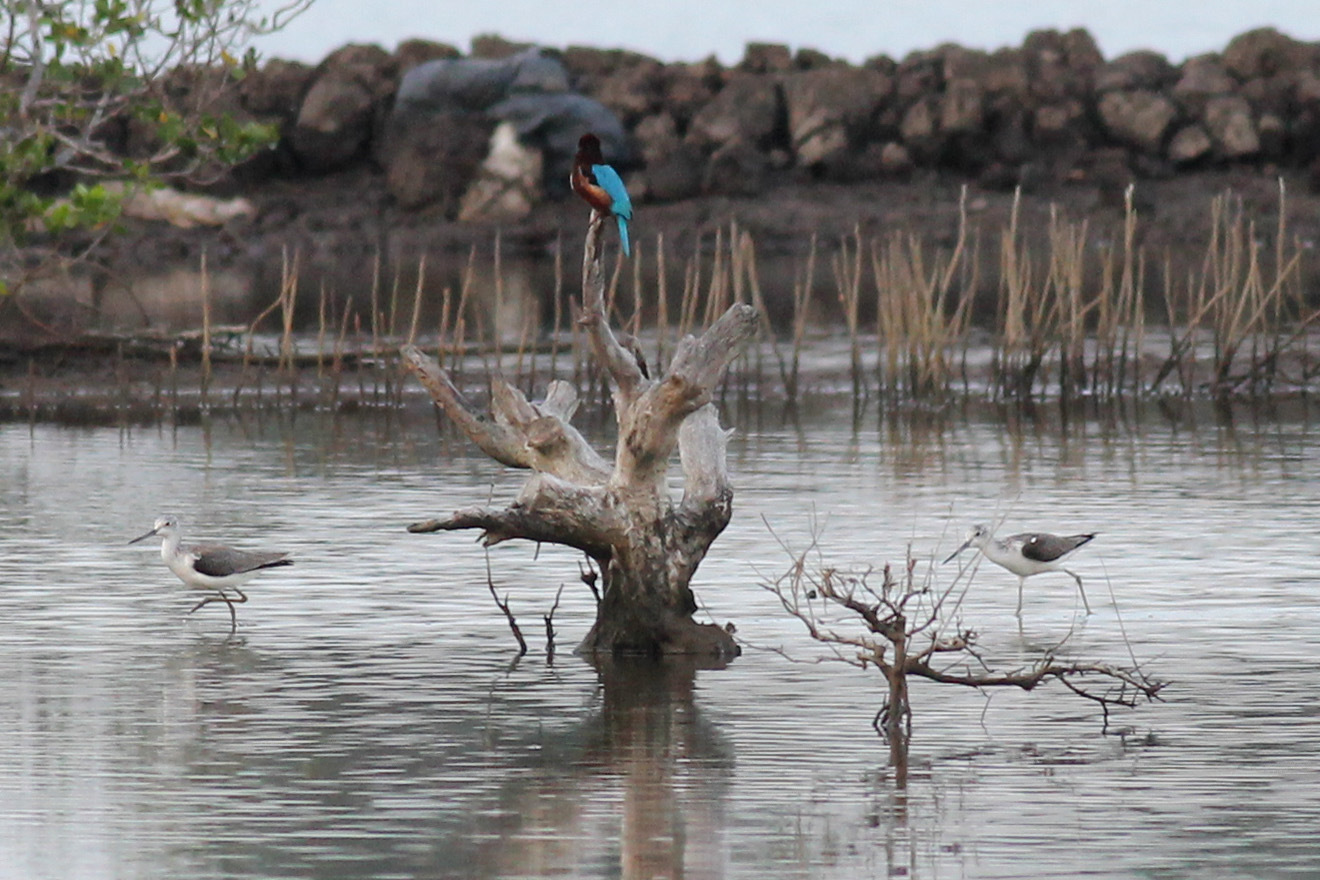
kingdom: Animalia
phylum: Chordata
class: Aves
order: Coraciiformes
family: Alcedinidae
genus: Halcyon
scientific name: Halcyon smyrnensis
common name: White-throated kingfisher
